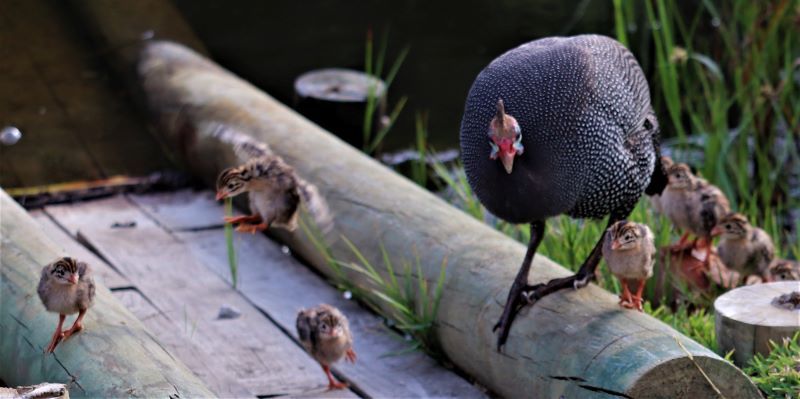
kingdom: Animalia
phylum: Chordata
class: Aves
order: Galliformes
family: Numididae
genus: Numida
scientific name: Numida meleagris
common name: Helmeted guineafowl
